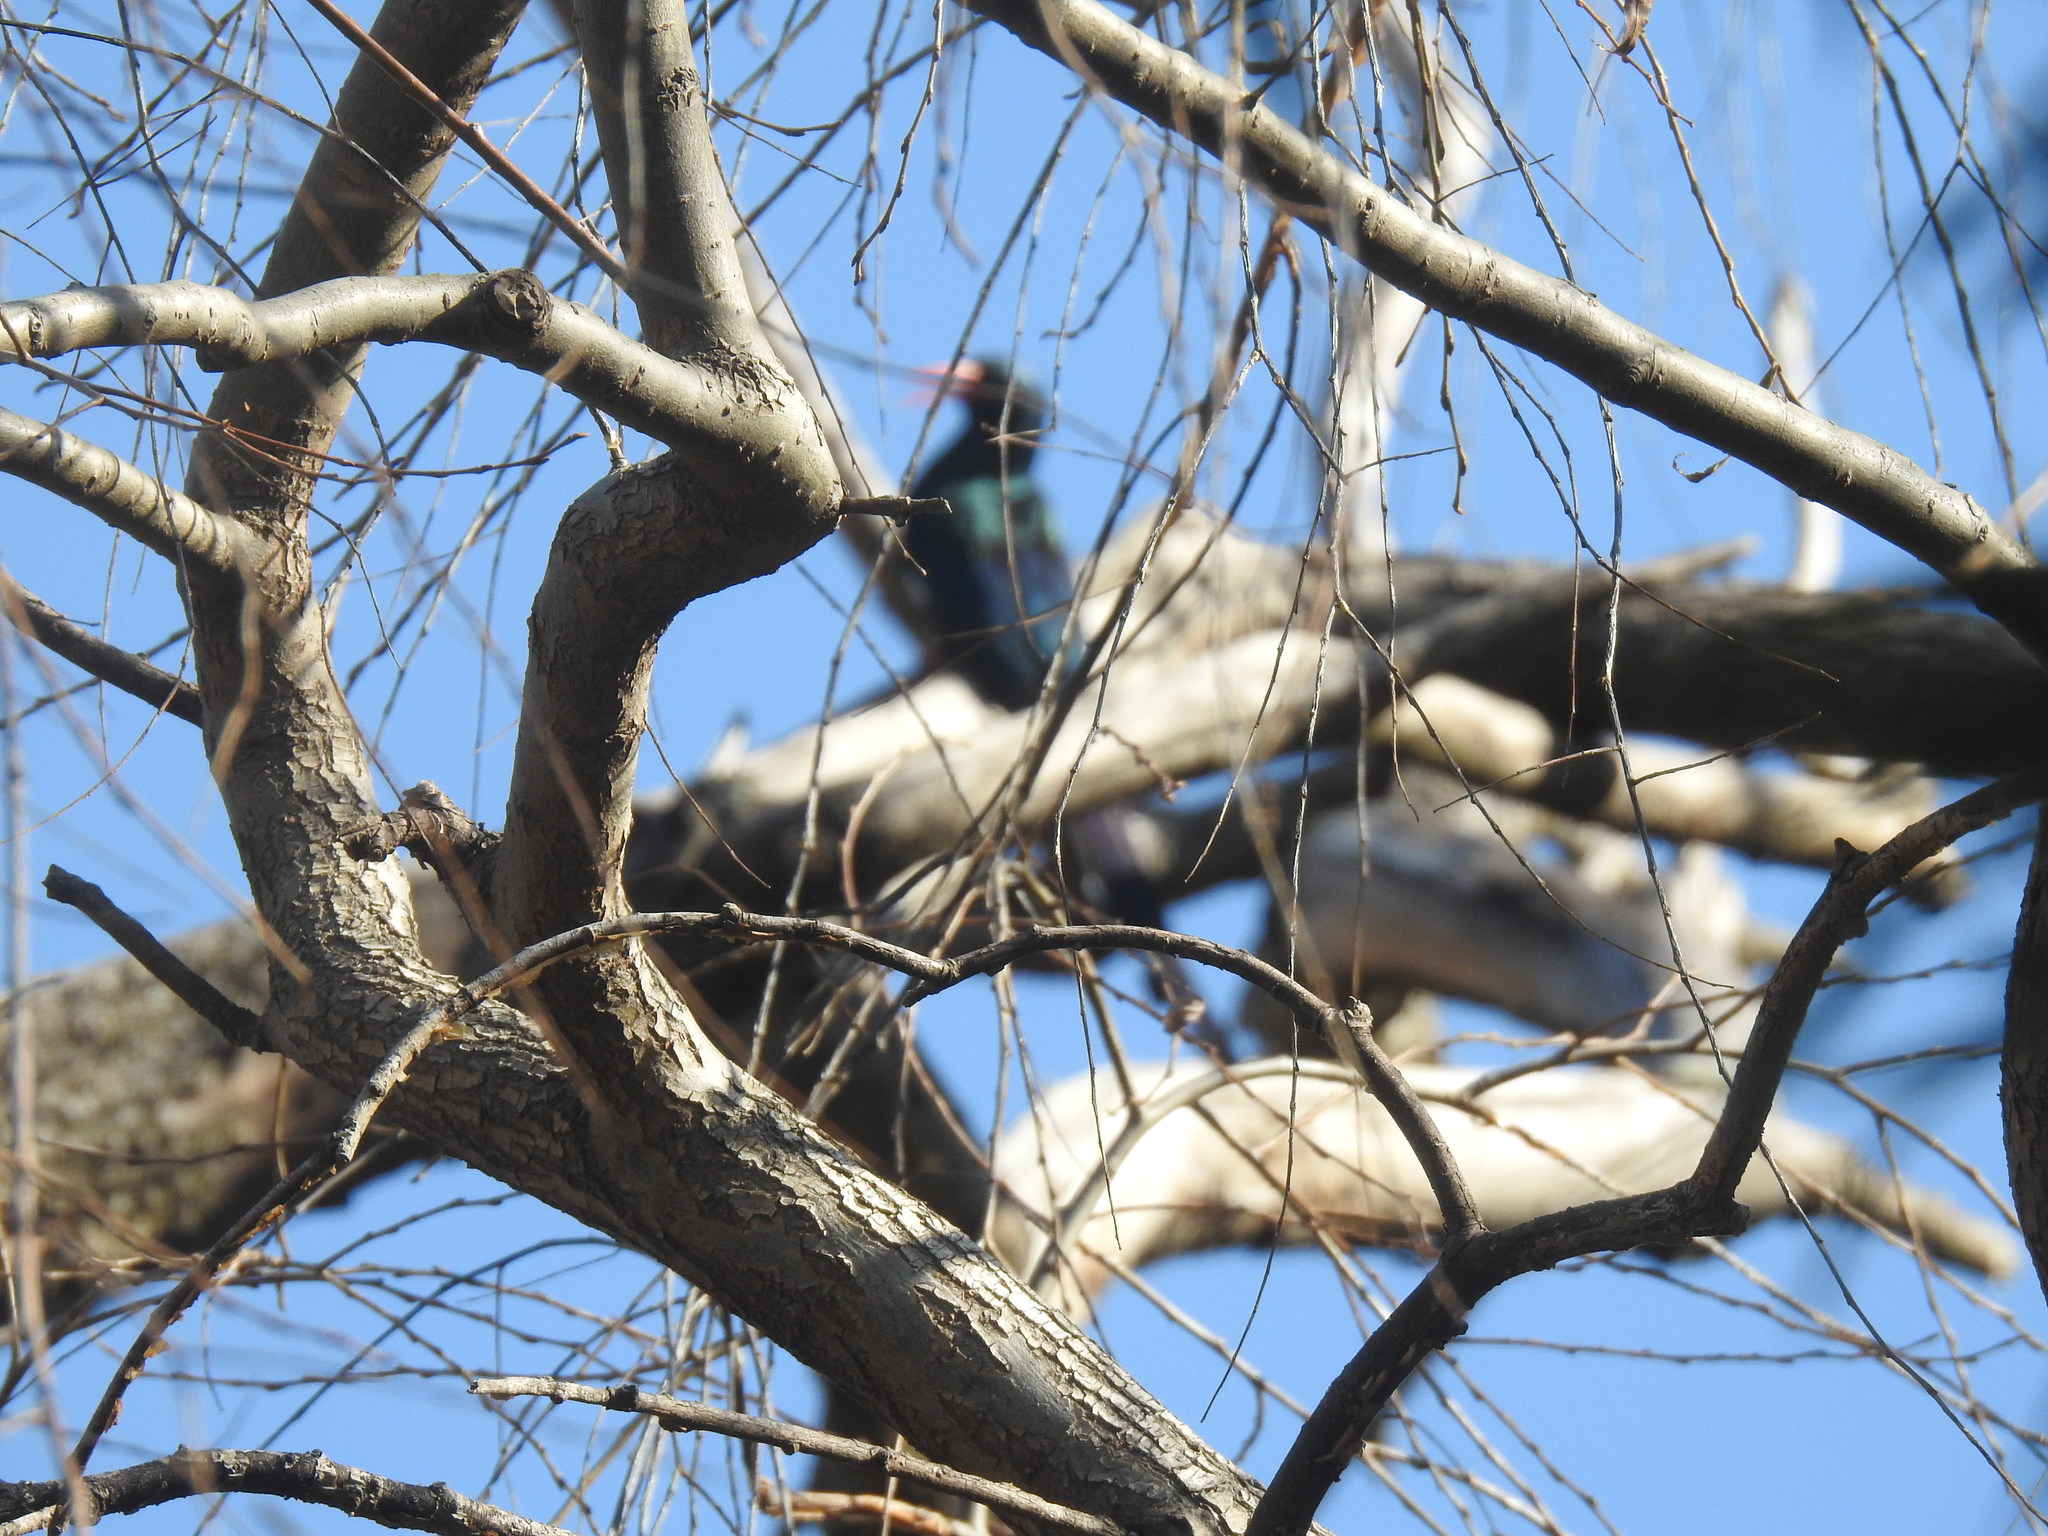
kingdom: Animalia
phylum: Chordata
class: Aves
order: Bucerotiformes
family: Phoeniculidae
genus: Phoeniculus
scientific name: Phoeniculus purpureus
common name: Green woodhoopoe
